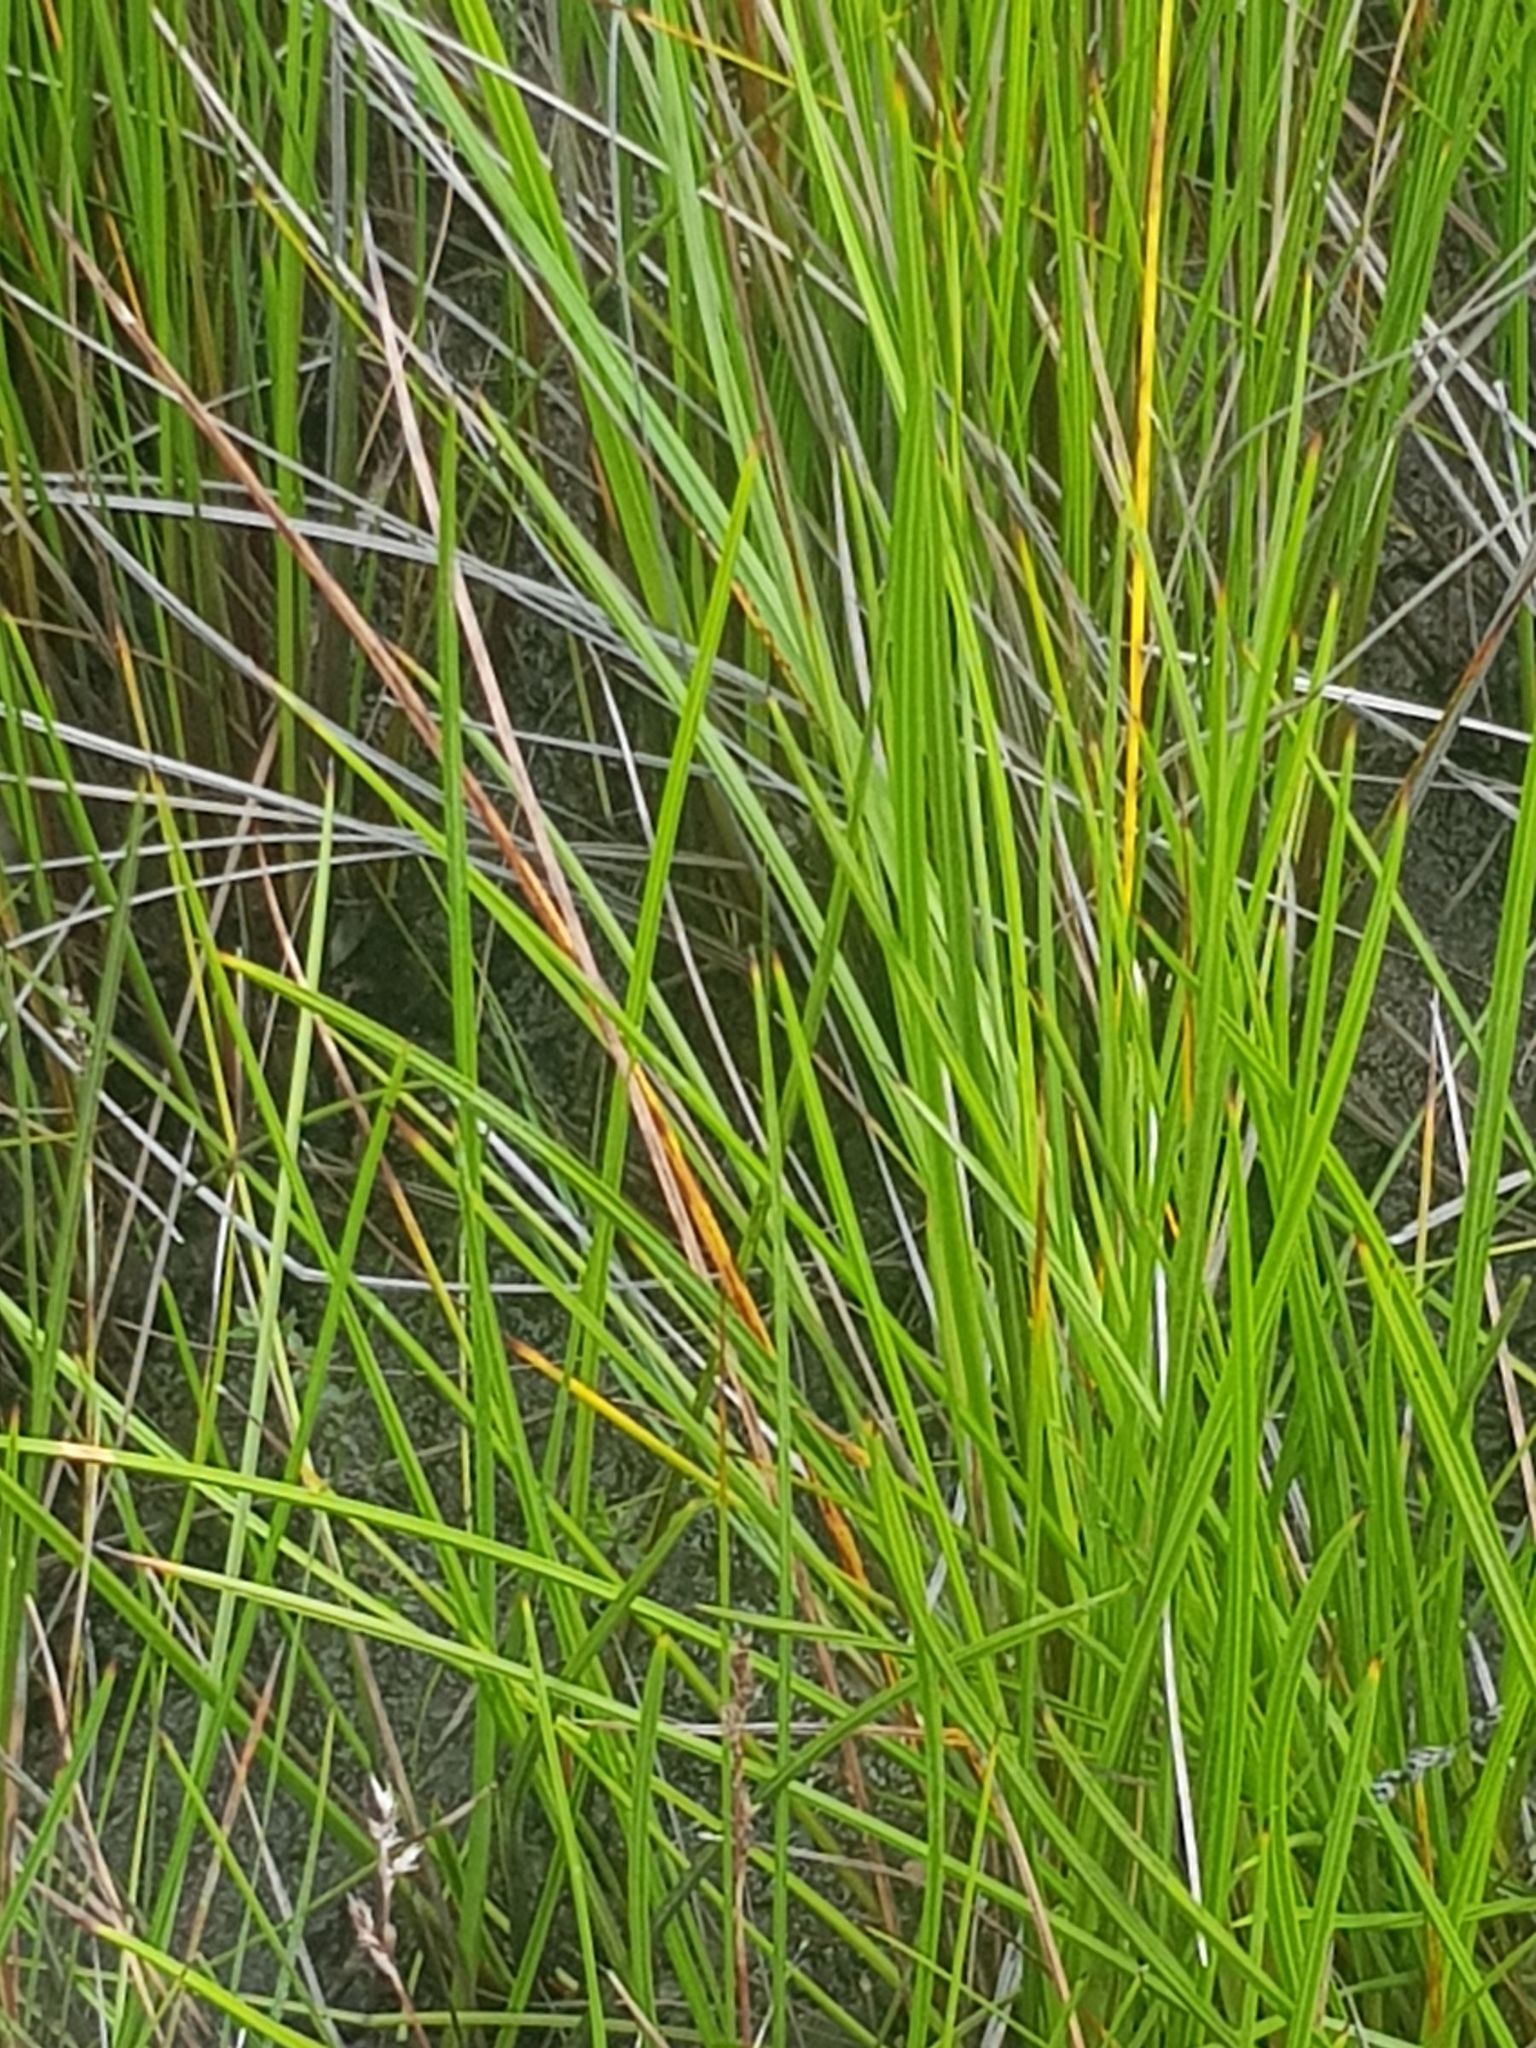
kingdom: Plantae
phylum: Tracheophyta
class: Liliopsida
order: Poales
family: Cyperaceae
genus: Machaerina
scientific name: Machaerina tetragona
